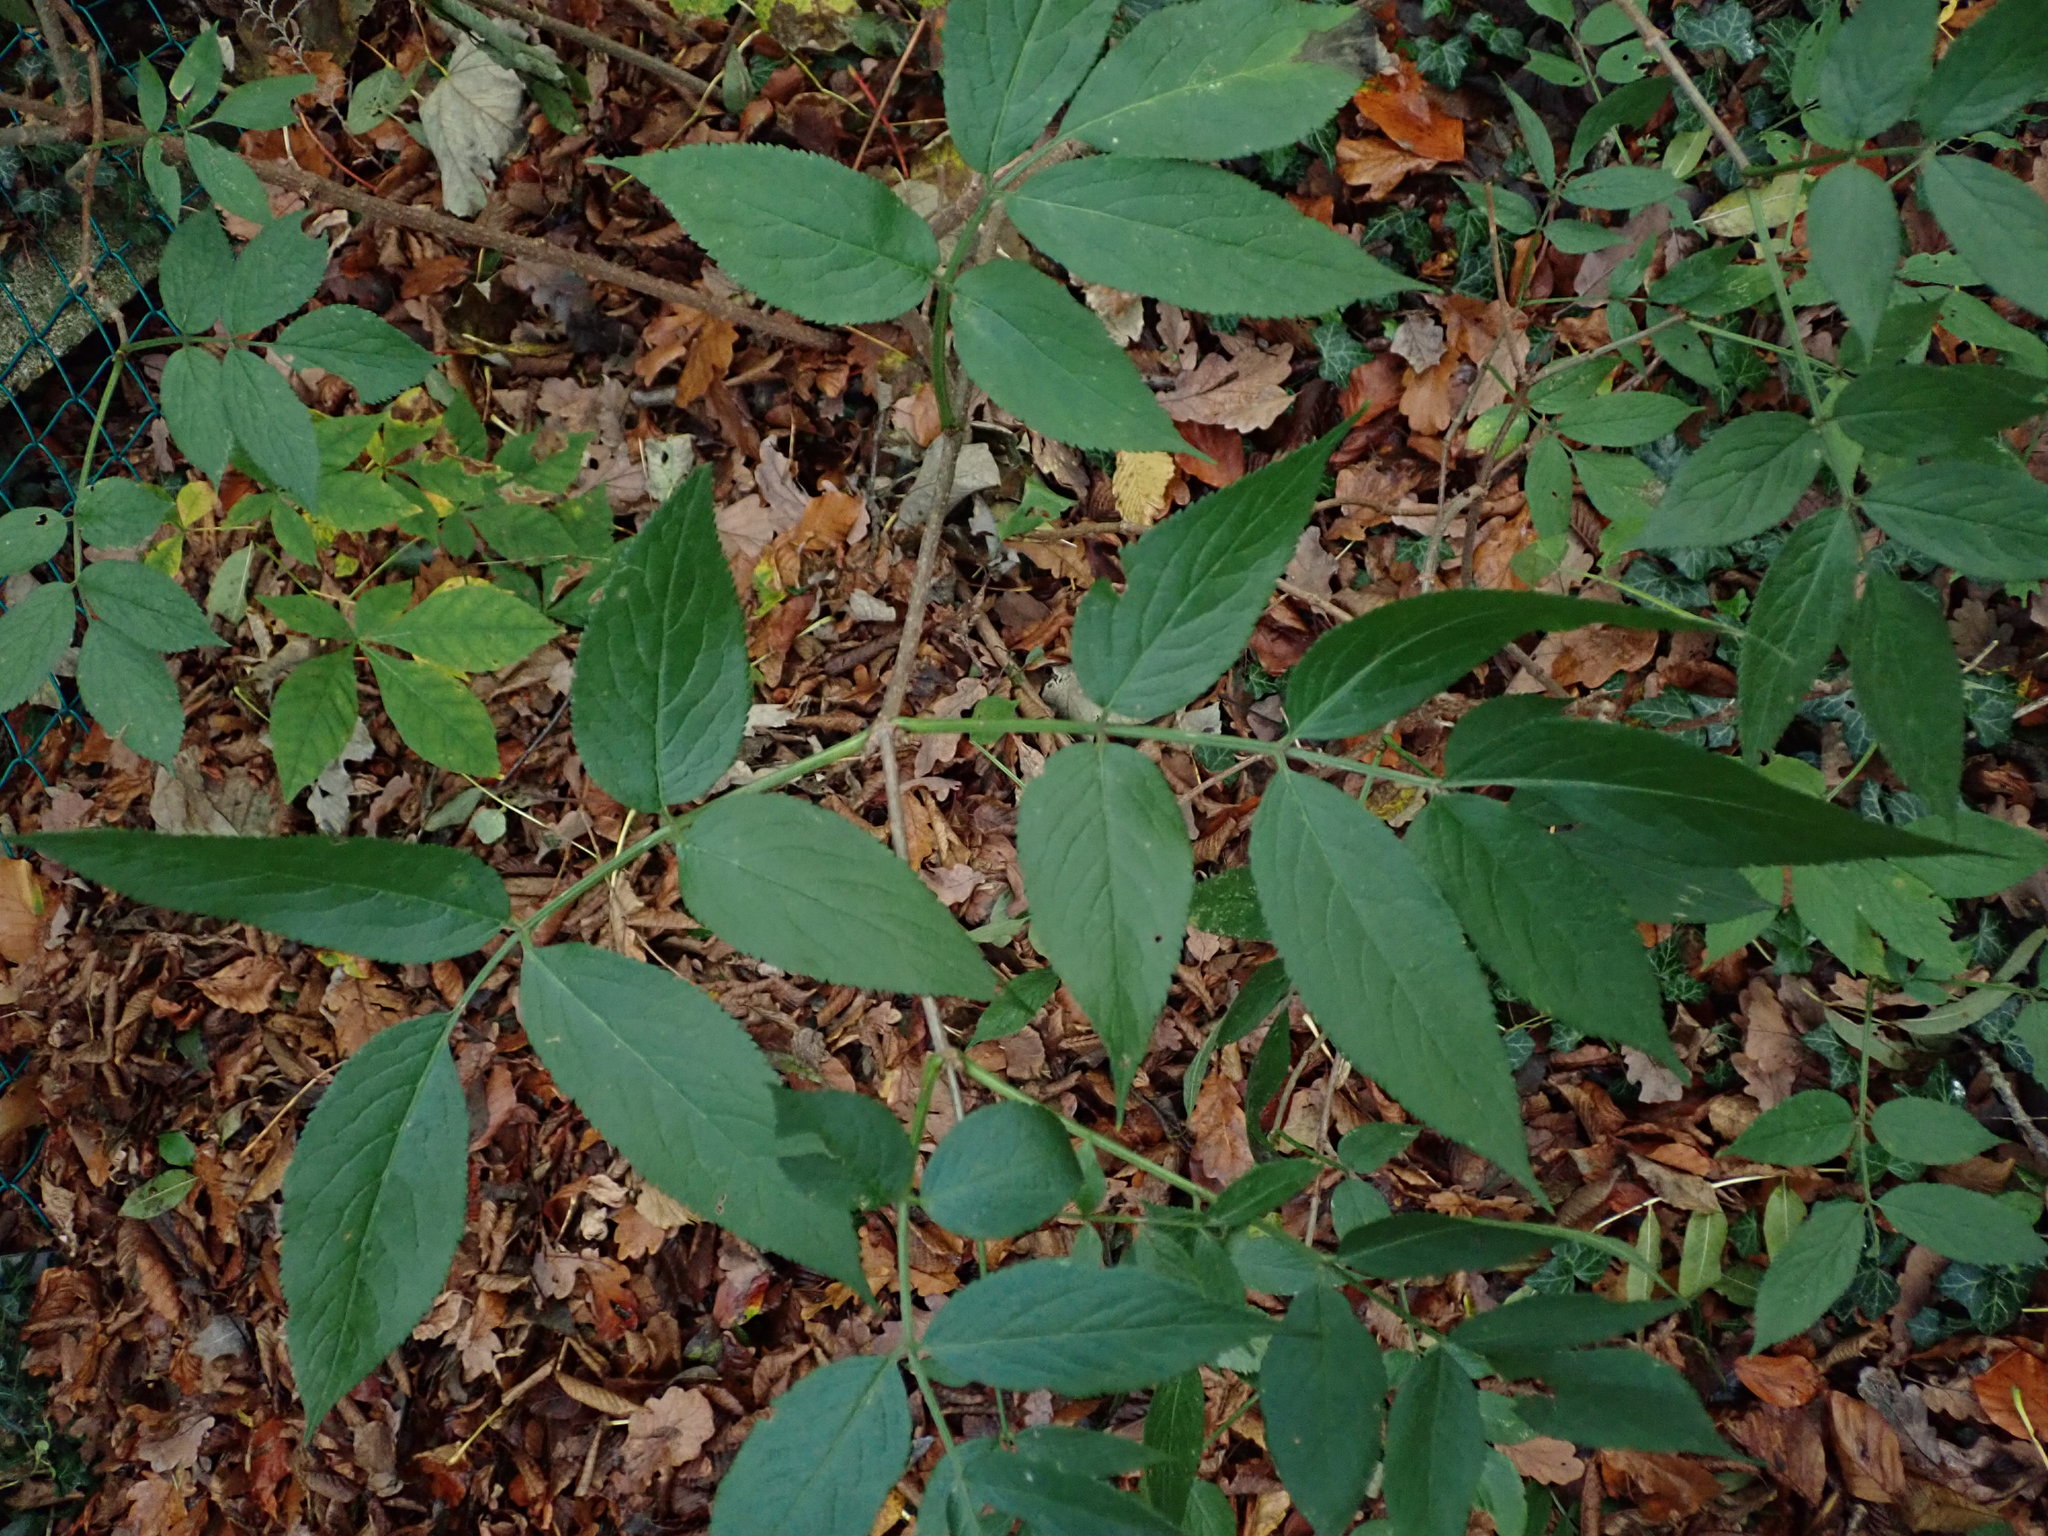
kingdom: Plantae
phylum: Tracheophyta
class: Magnoliopsida
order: Dipsacales
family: Viburnaceae
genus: Sambucus
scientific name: Sambucus nigra
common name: Elder
